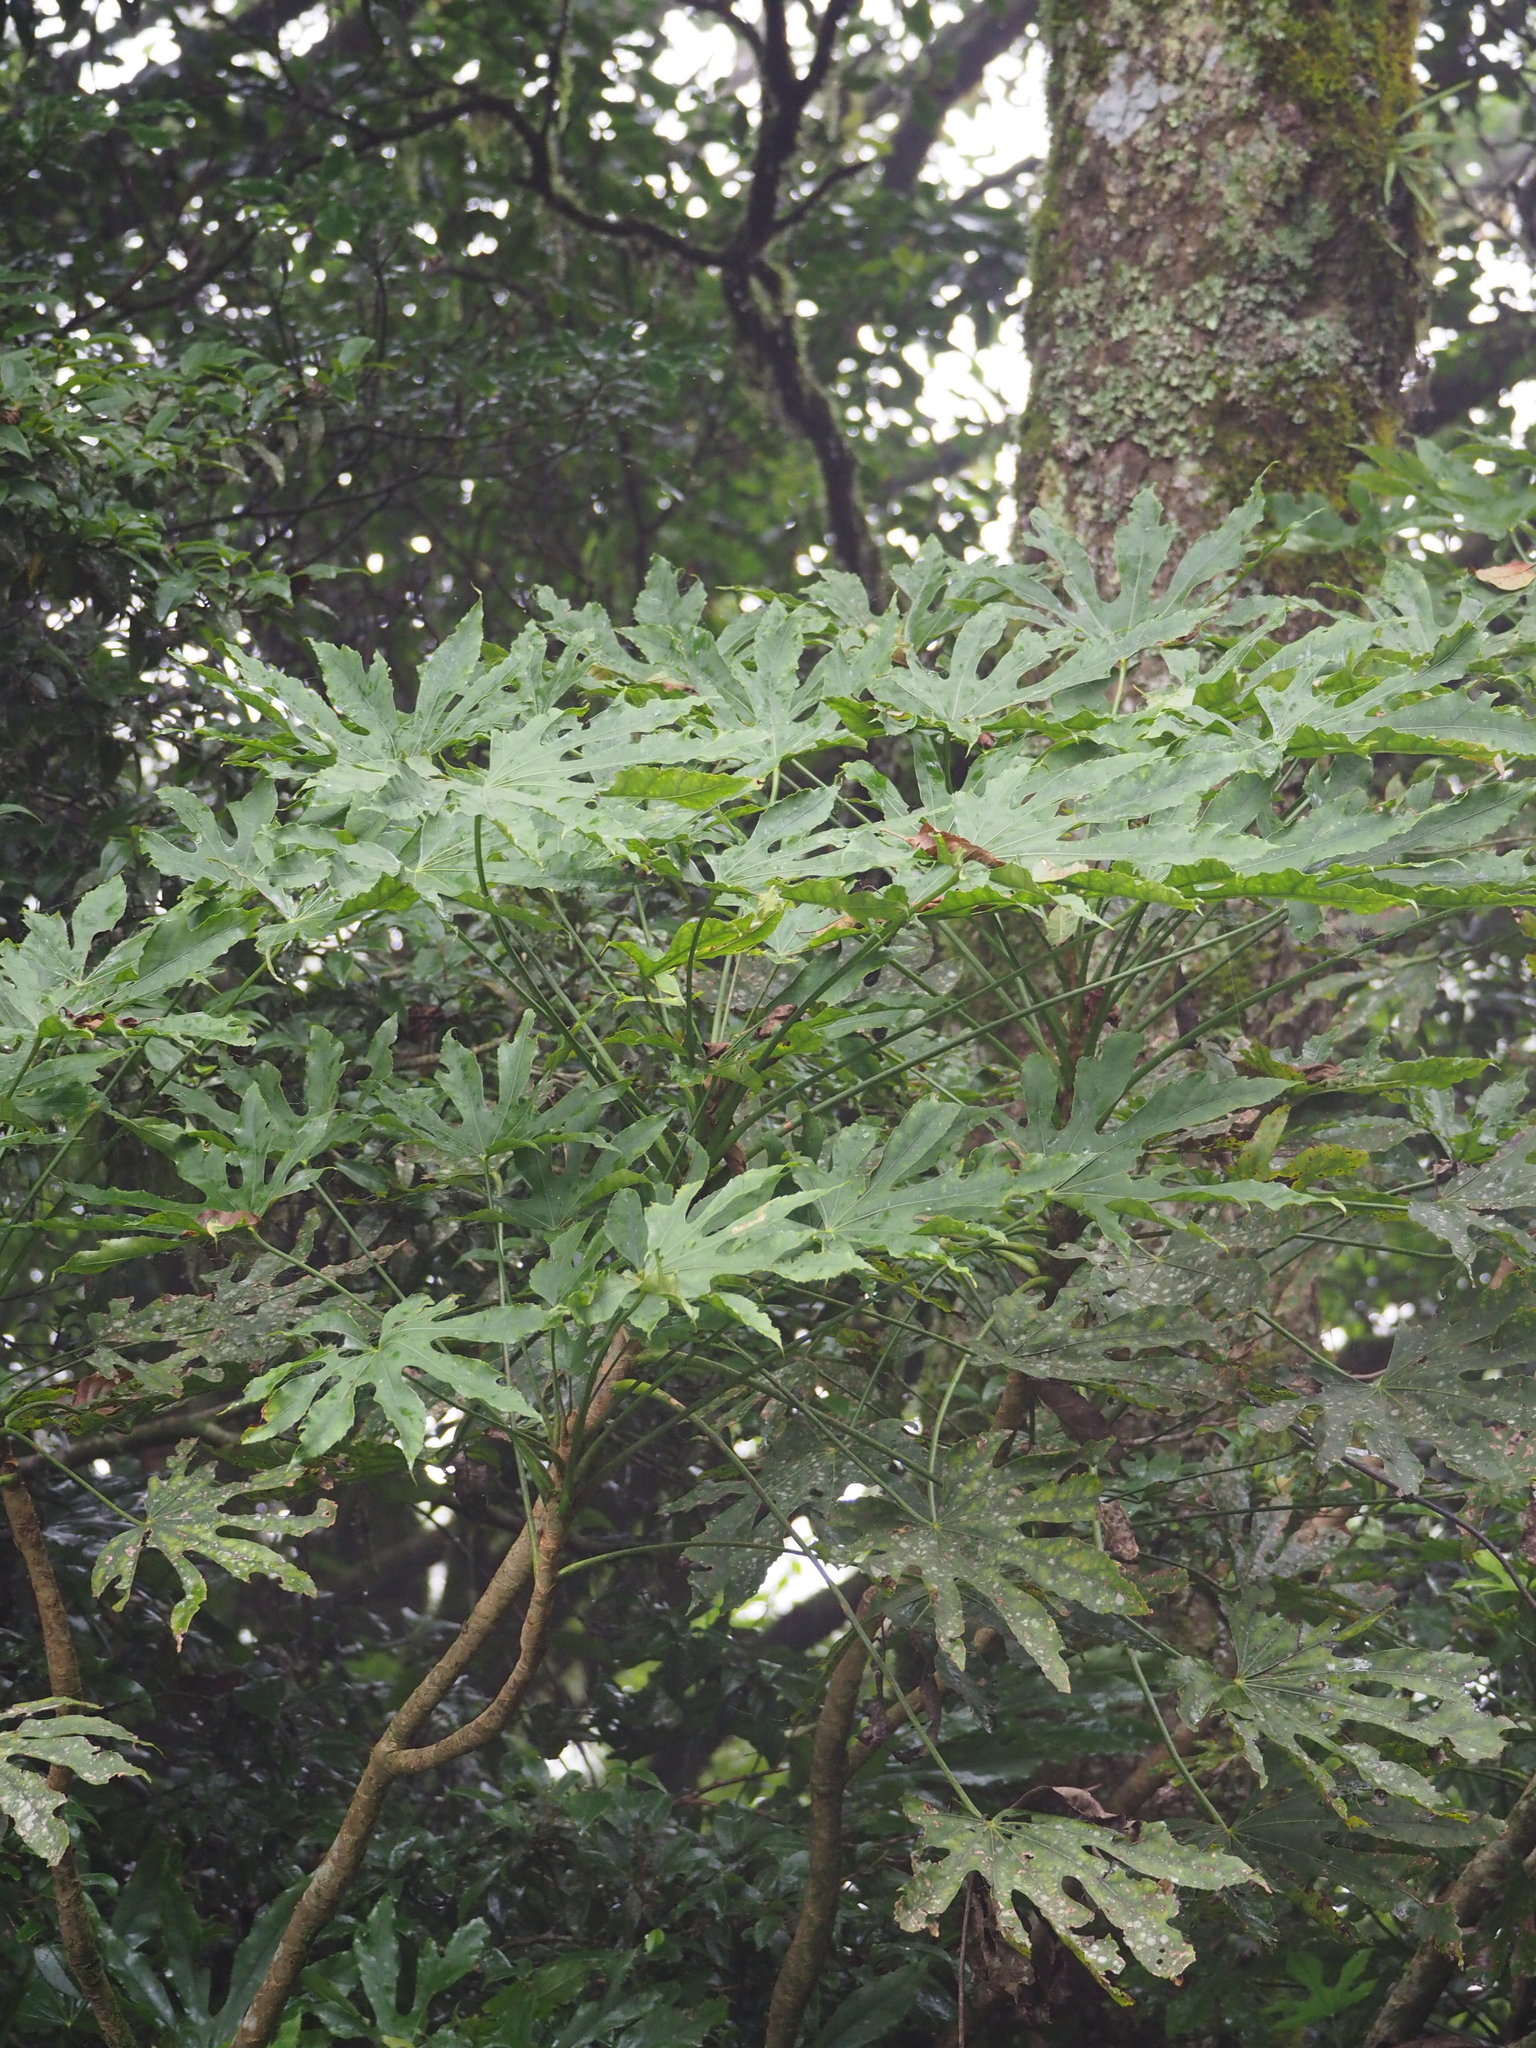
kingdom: Plantae
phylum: Tracheophyta
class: Magnoliopsida
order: Apiales
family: Araliaceae
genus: Fatsia
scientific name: Fatsia polycarpa
